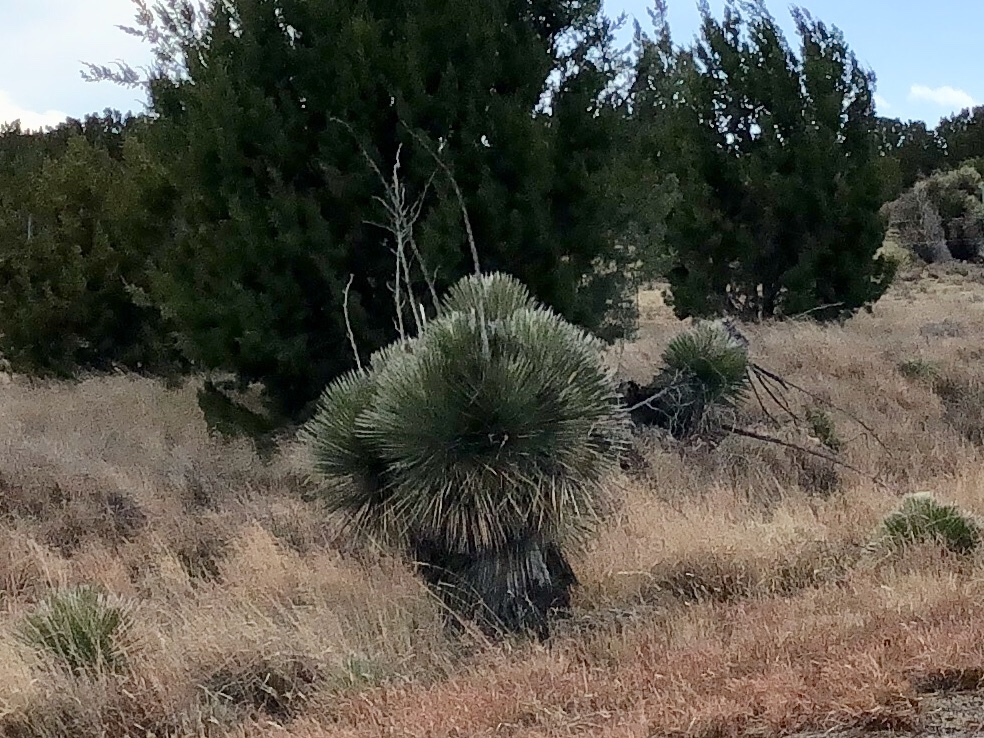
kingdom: Plantae
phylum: Tracheophyta
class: Liliopsida
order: Asparagales
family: Asparagaceae
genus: Yucca
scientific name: Yucca elata
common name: Palmella
